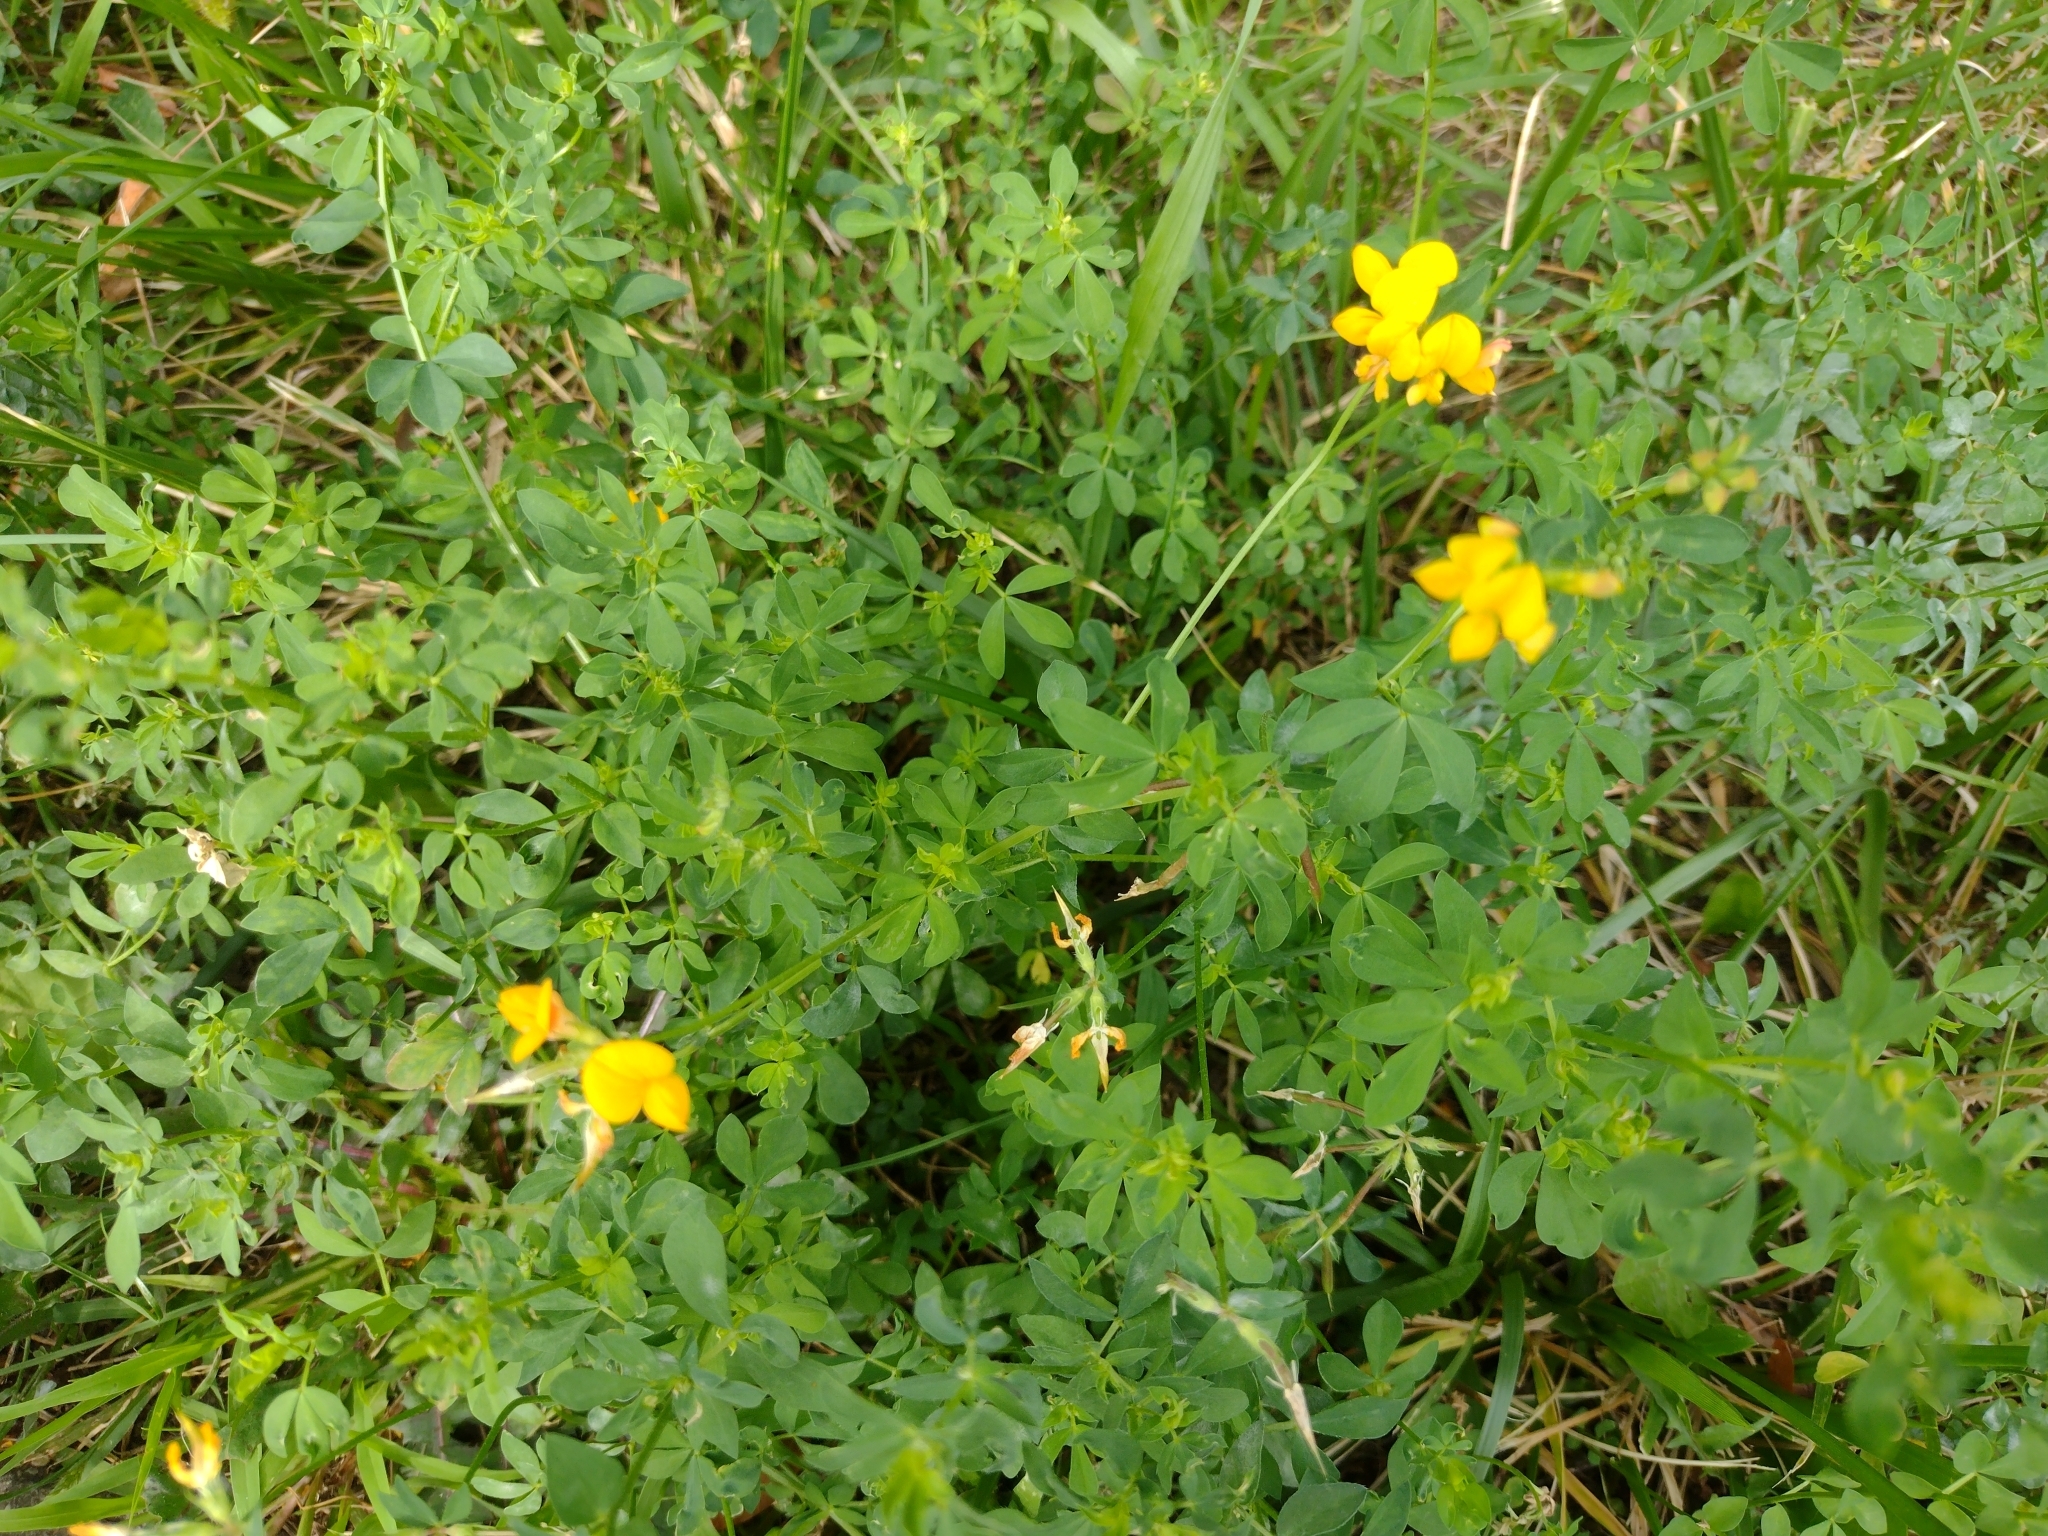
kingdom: Plantae
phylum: Tracheophyta
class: Magnoliopsida
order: Fabales
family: Fabaceae
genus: Lotus
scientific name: Lotus corniculatus
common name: Common bird's-foot-trefoil
